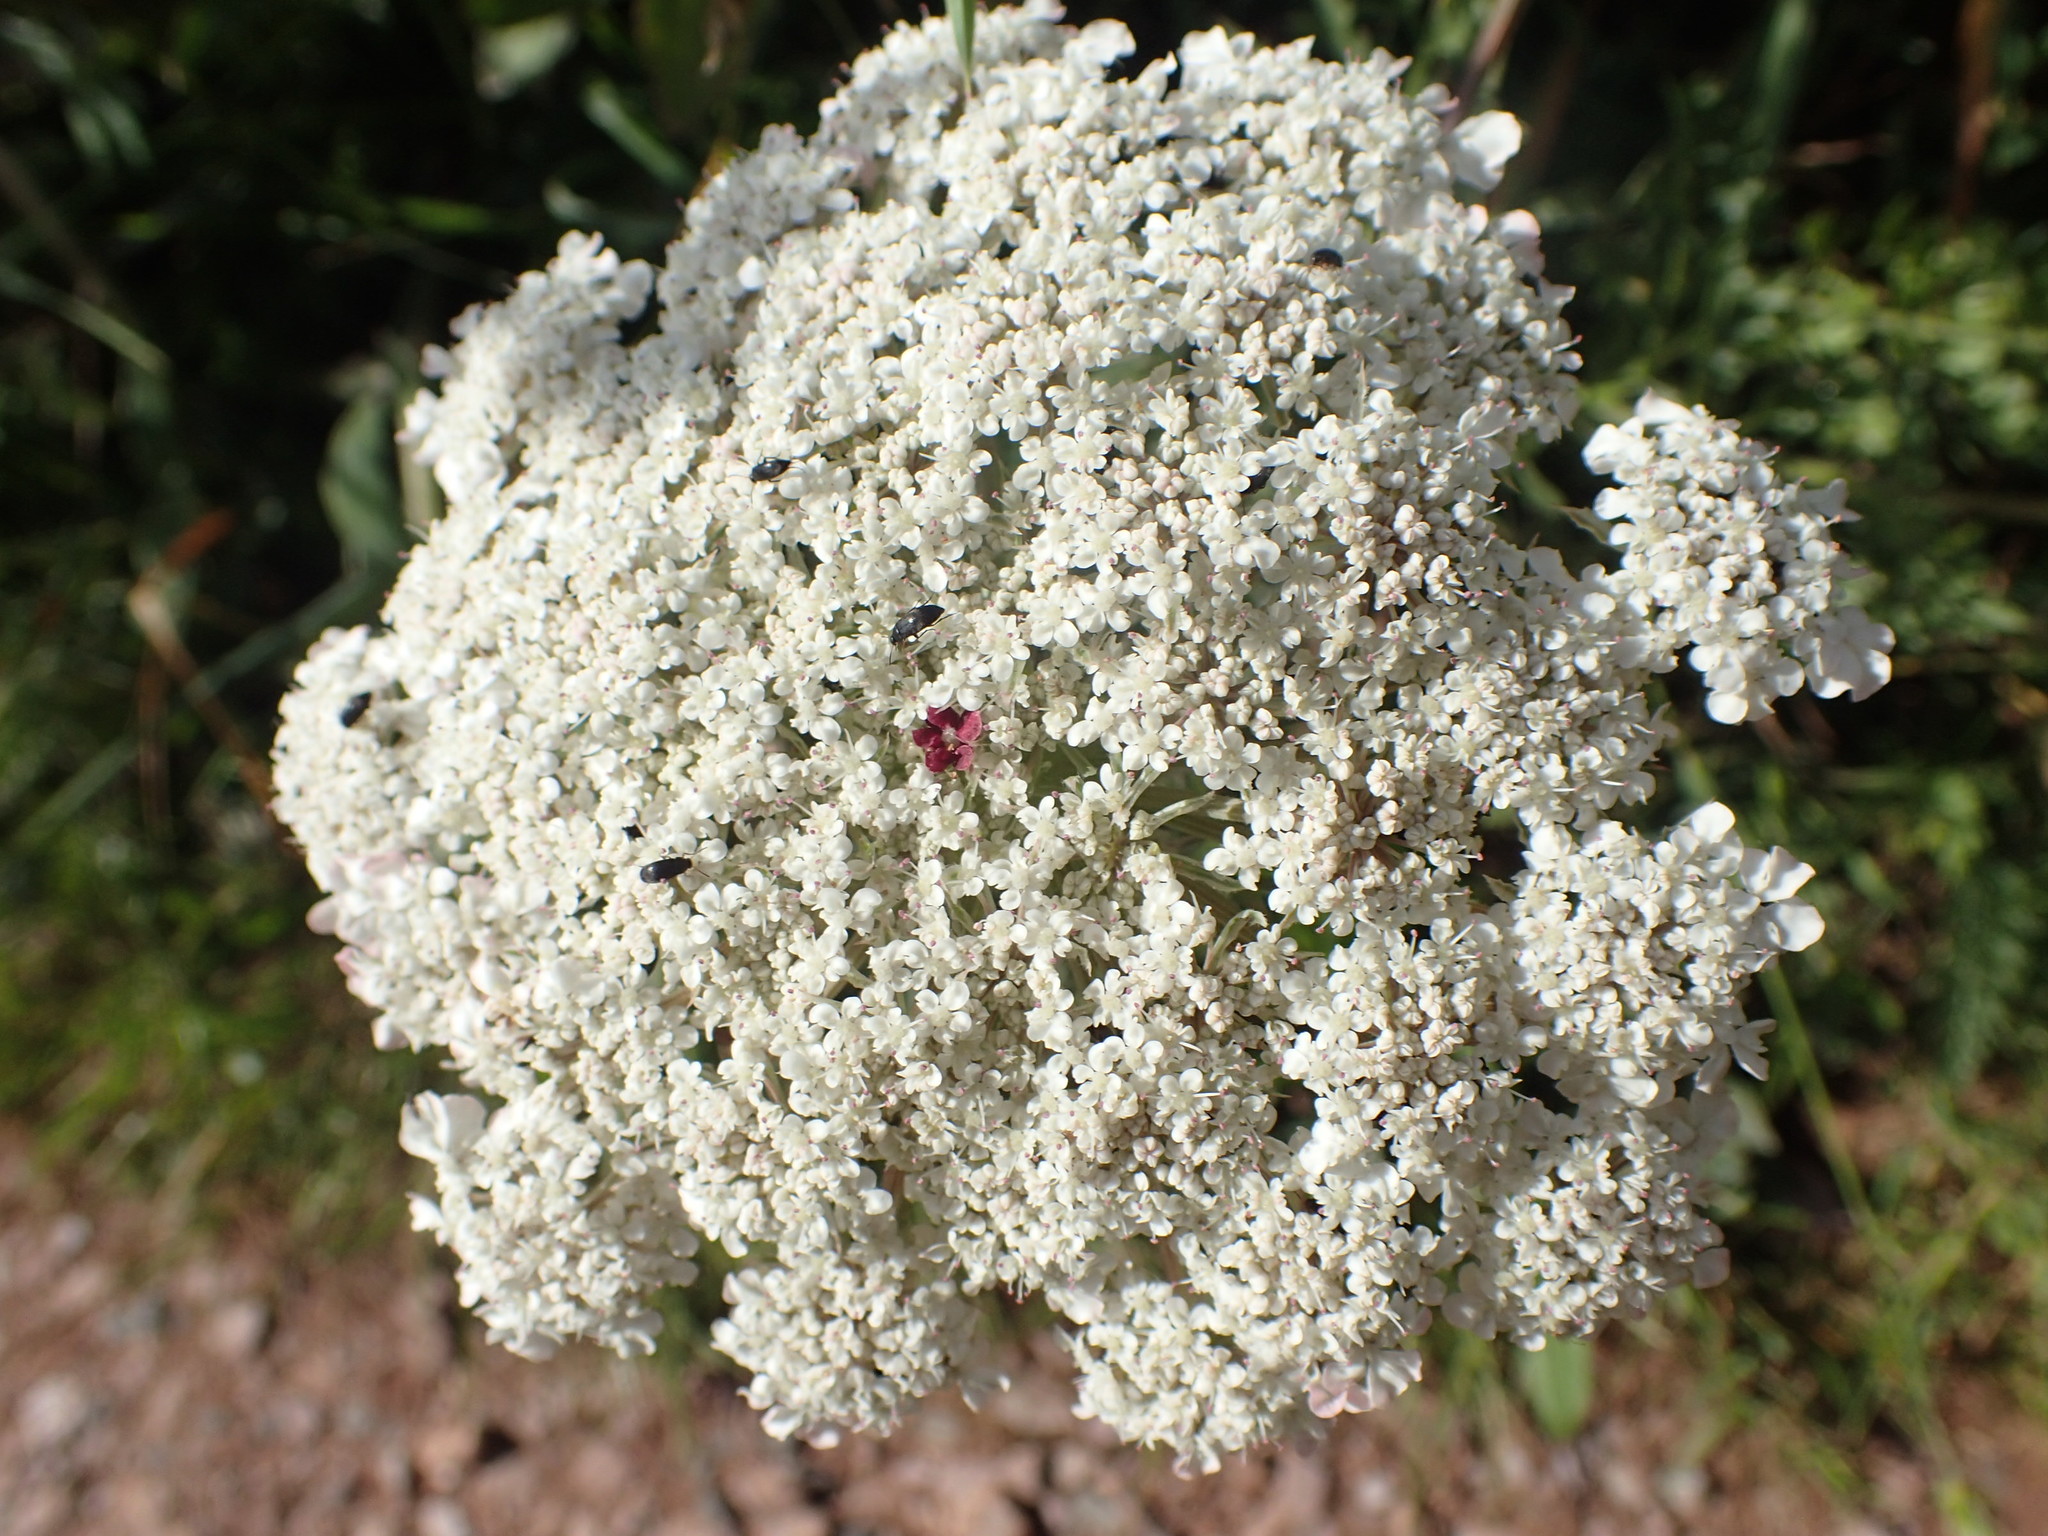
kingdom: Plantae
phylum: Tracheophyta
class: Magnoliopsida
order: Apiales
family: Apiaceae
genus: Daucus
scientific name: Daucus carota
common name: Wild carrot
